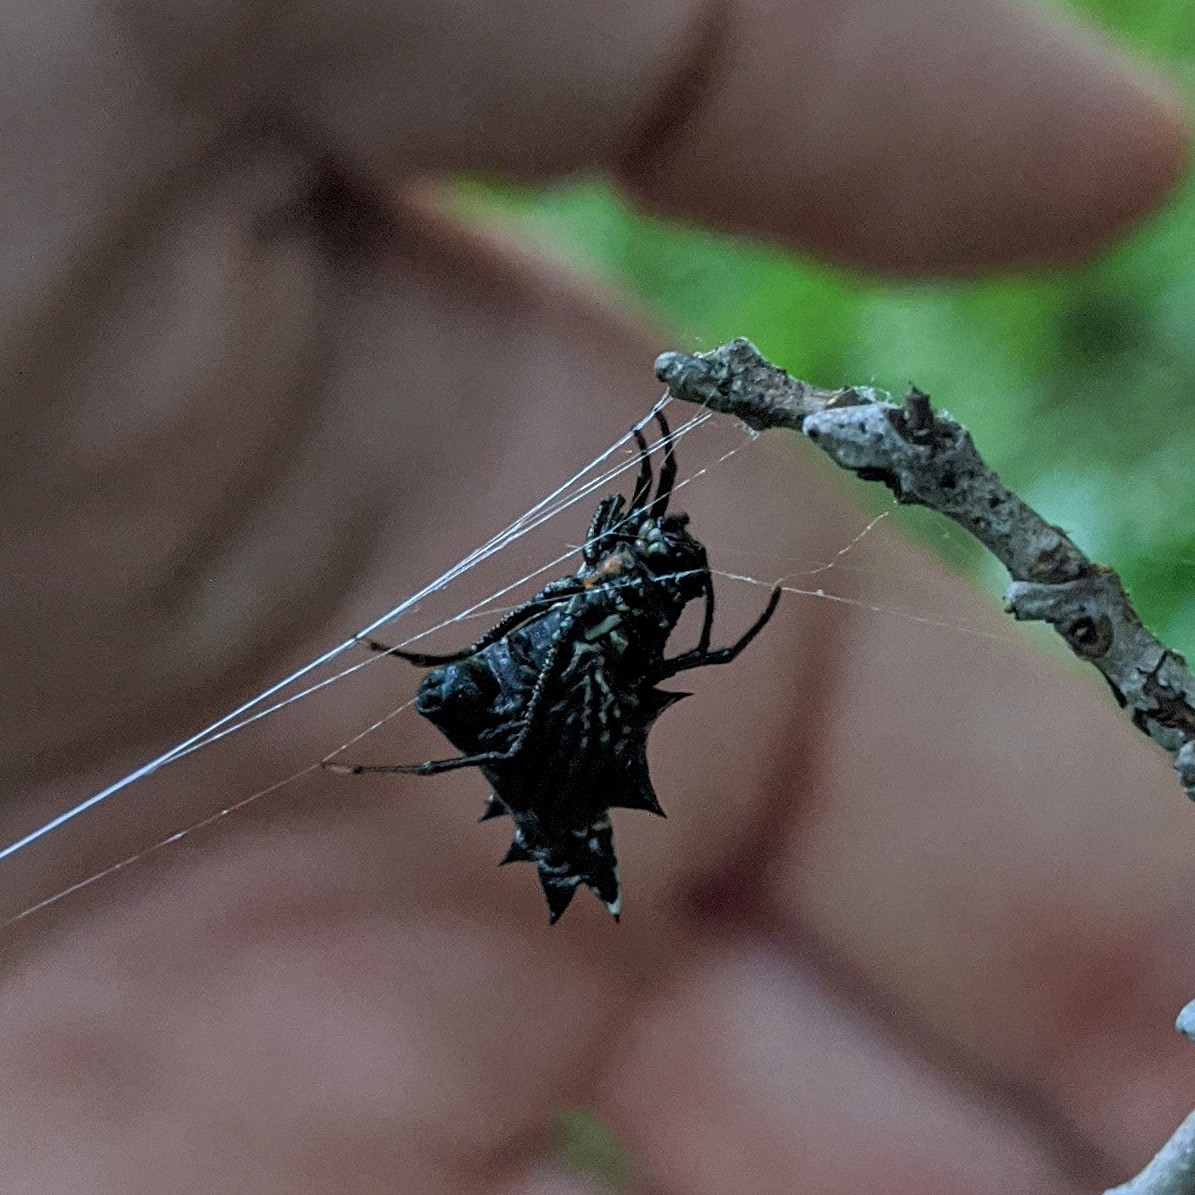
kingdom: Animalia
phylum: Arthropoda
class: Arachnida
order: Araneae
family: Araneidae
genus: Micrathena
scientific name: Micrathena gracilis
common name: Orb weavers
